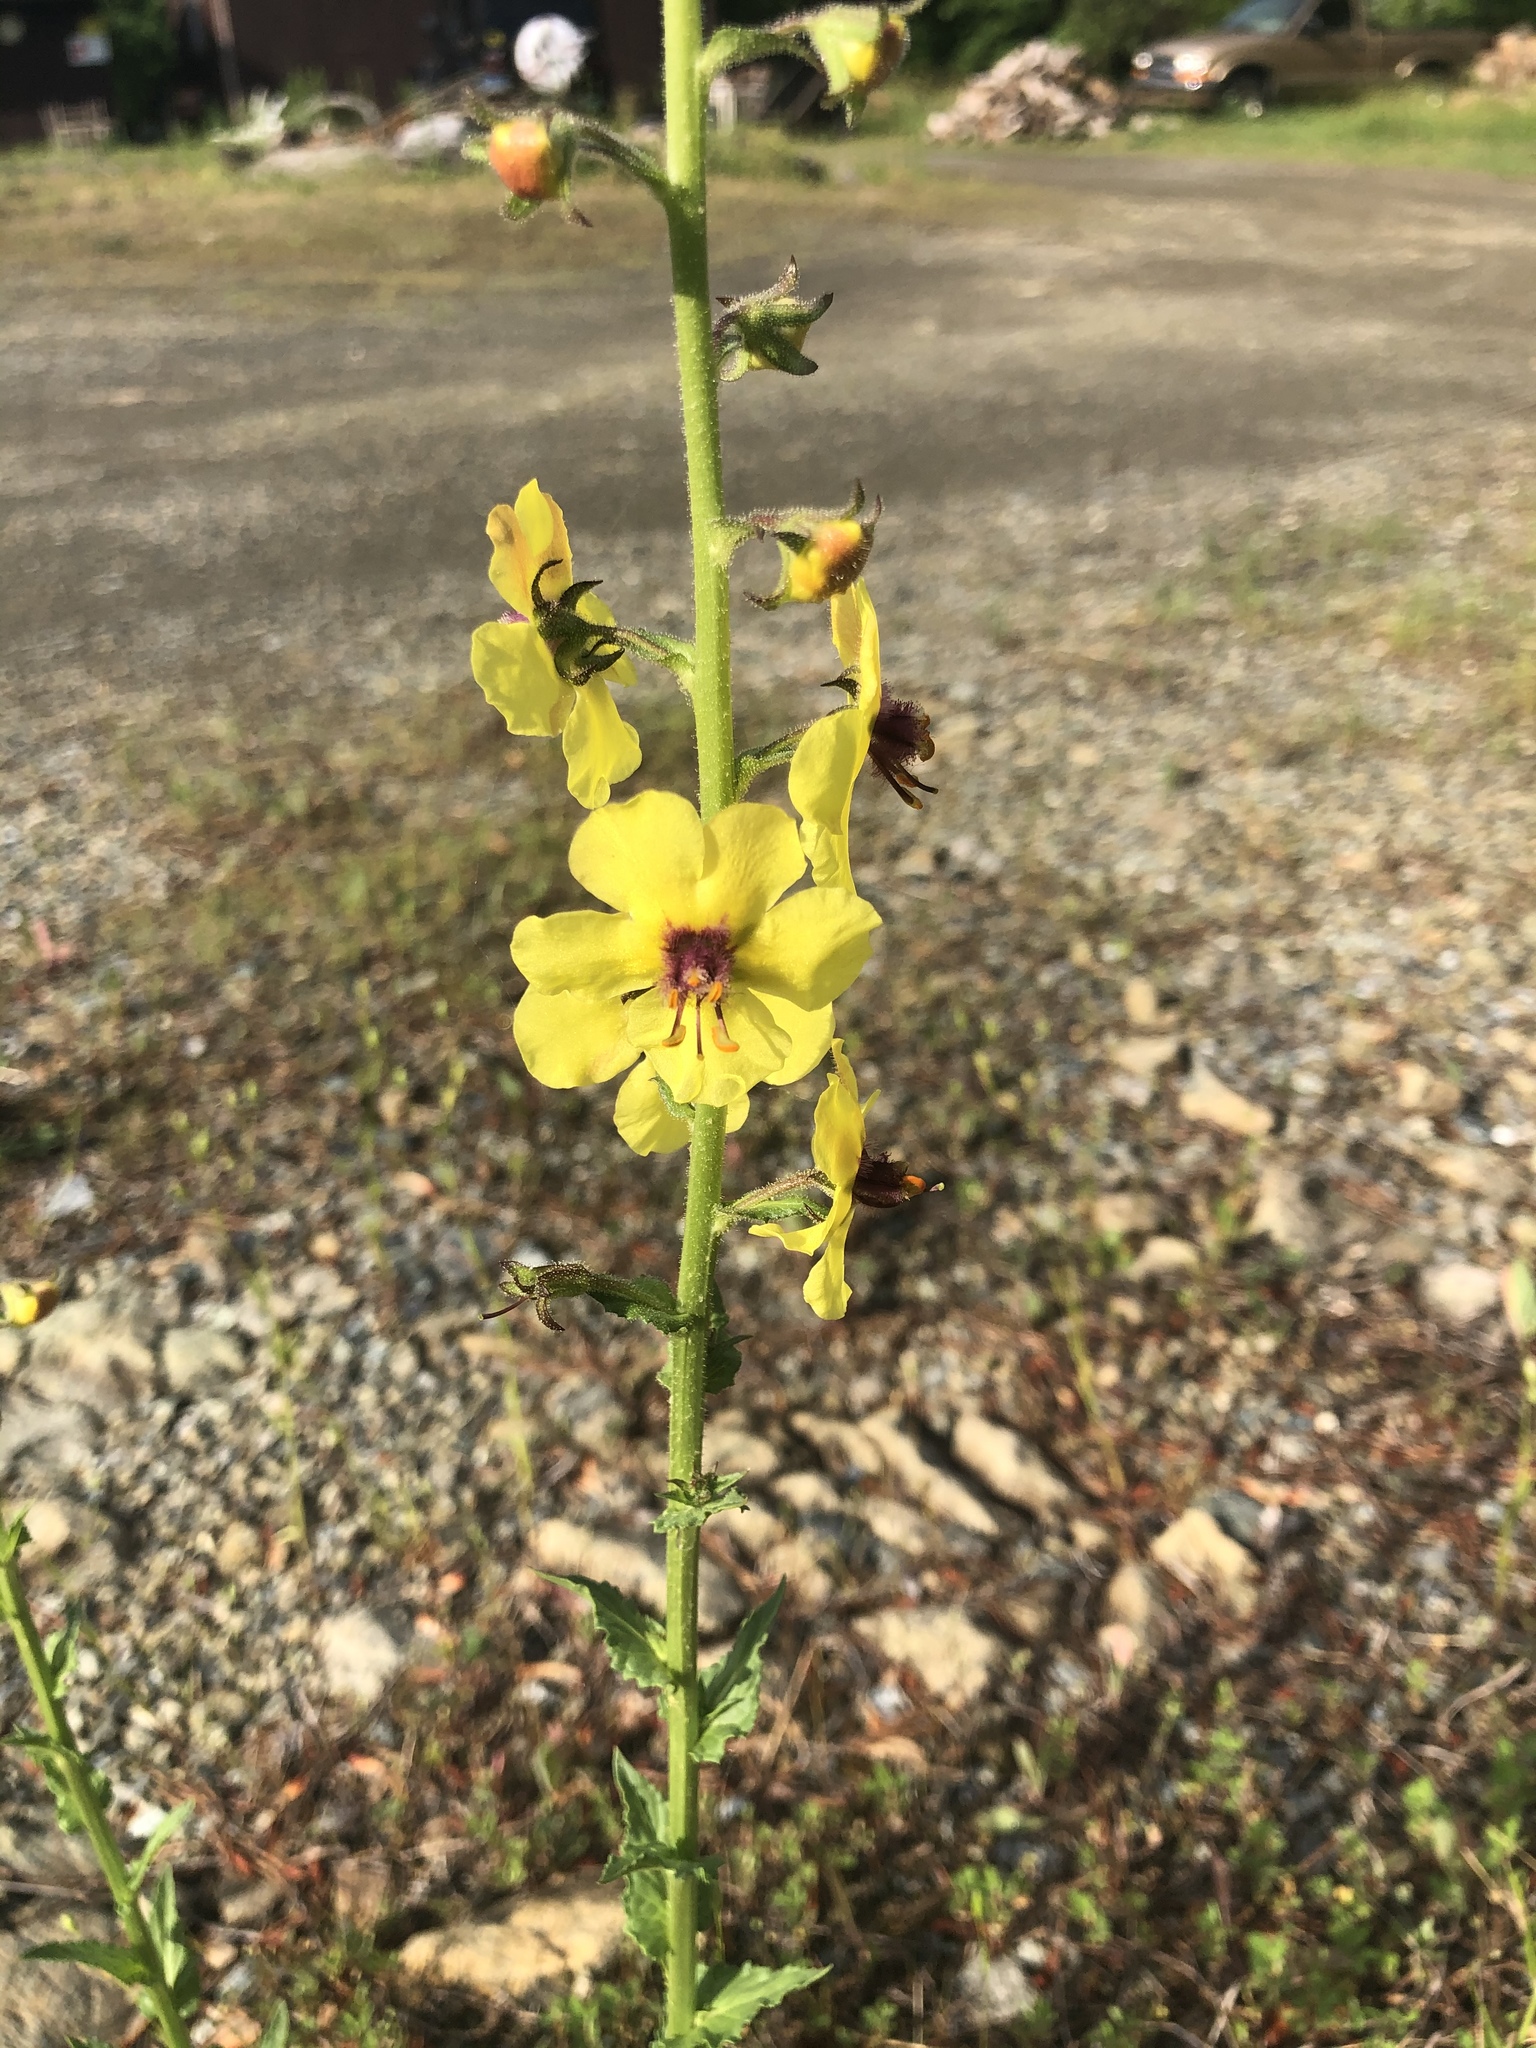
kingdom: Plantae
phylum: Tracheophyta
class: Magnoliopsida
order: Lamiales
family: Scrophulariaceae
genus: Verbascum
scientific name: Verbascum blattaria
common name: Moth mullein
